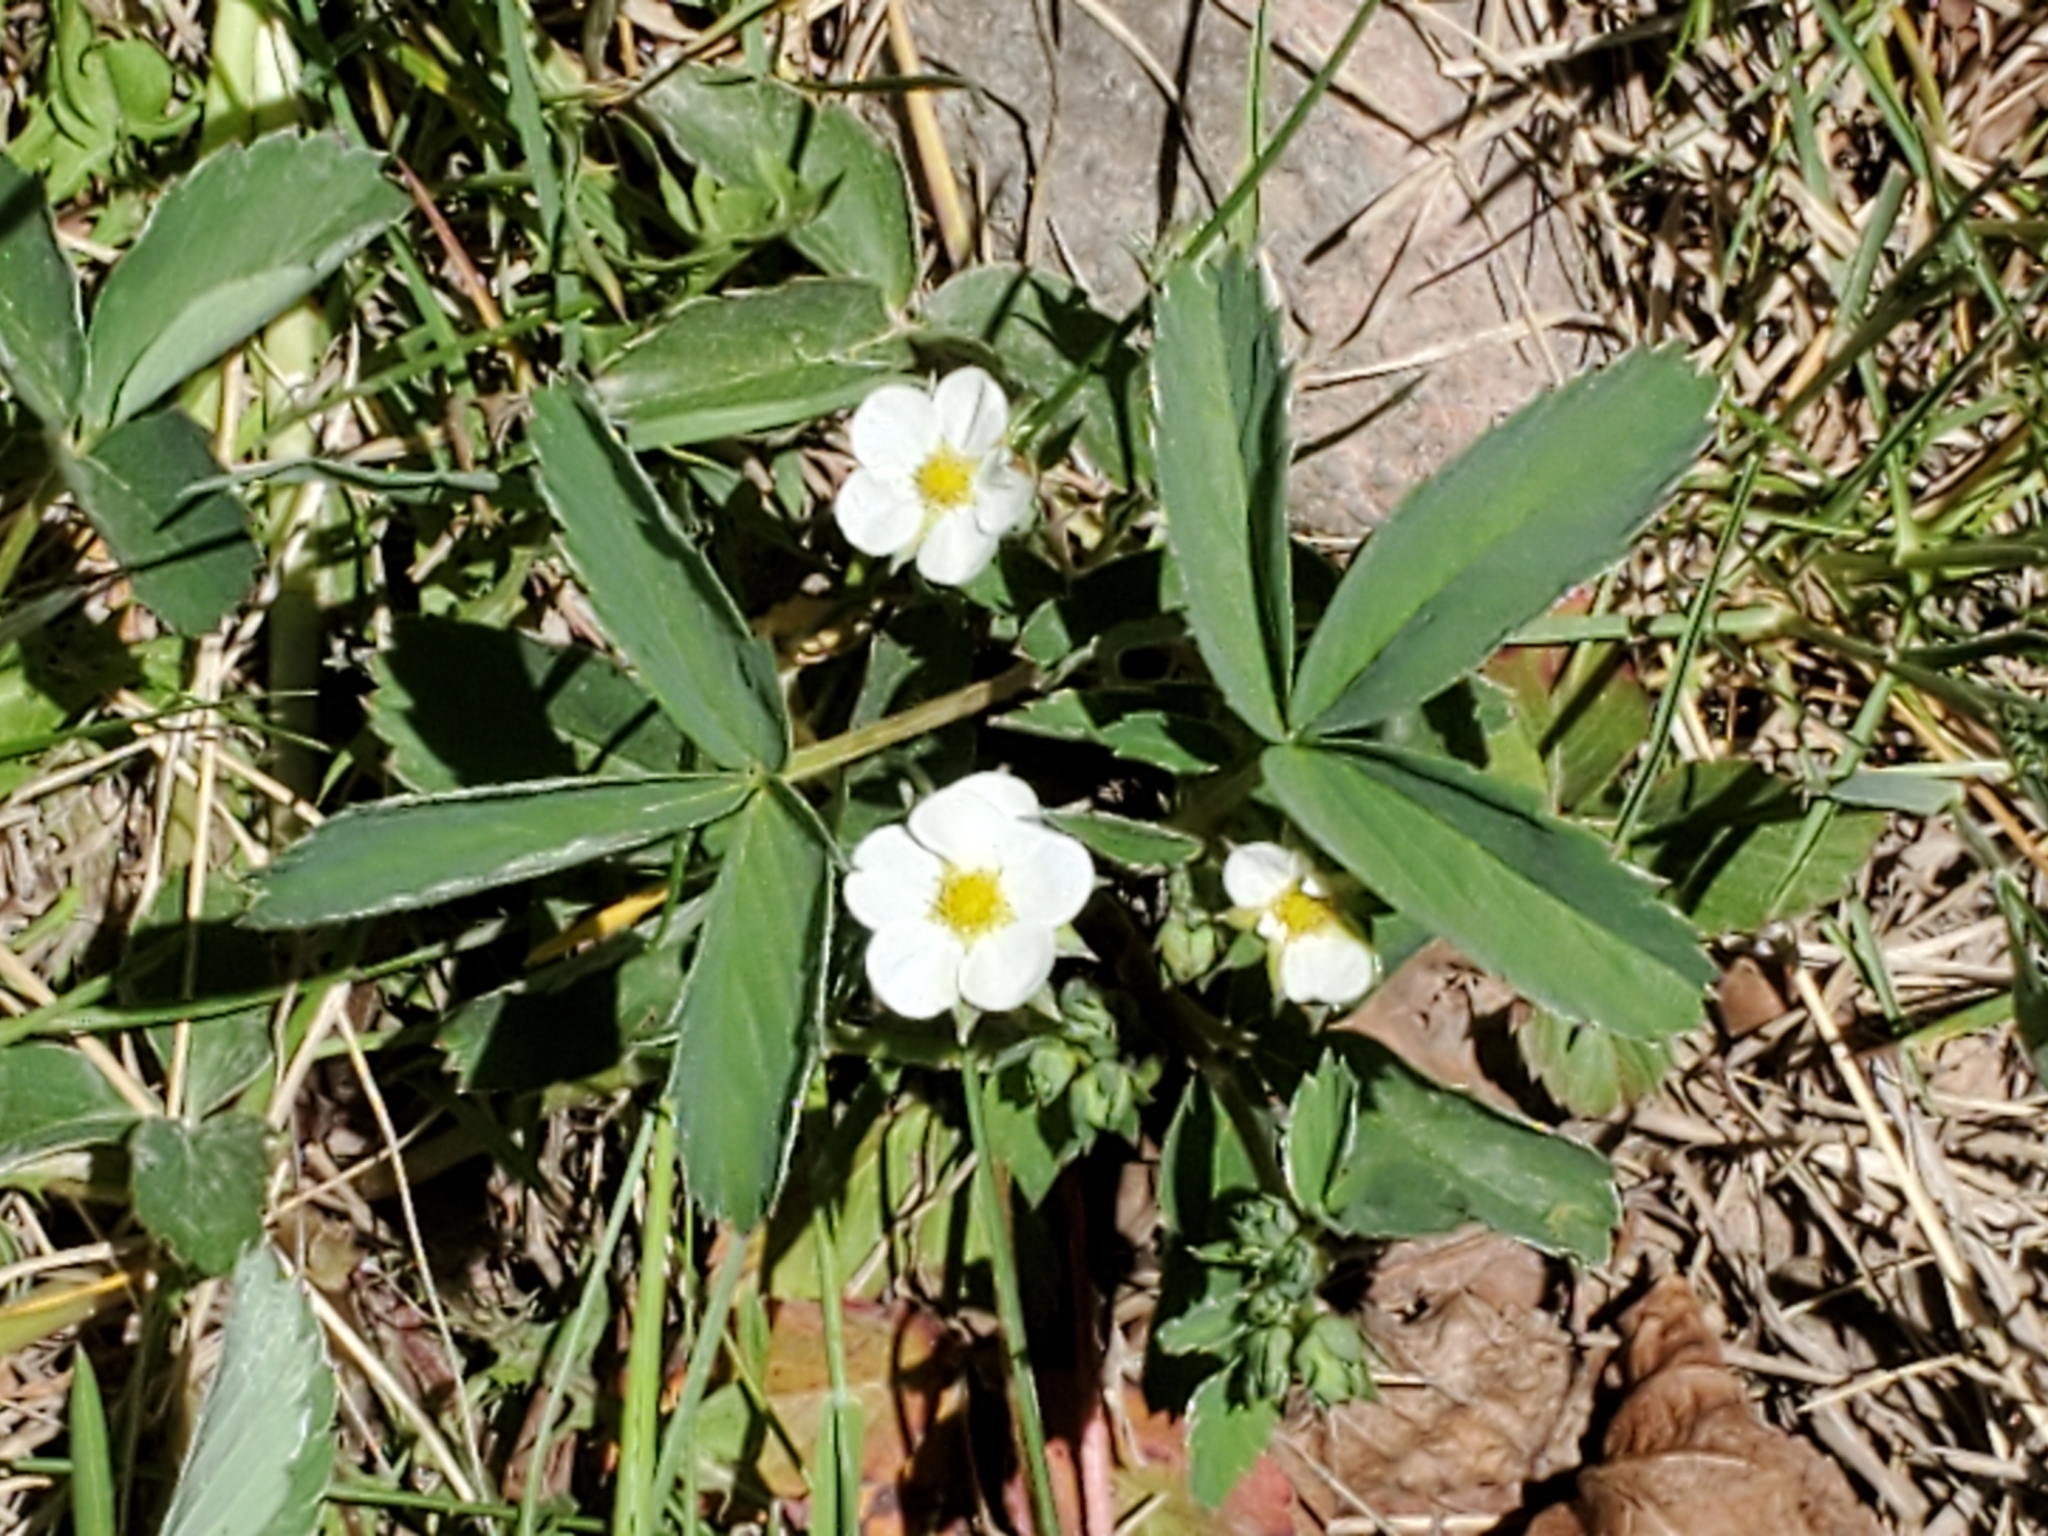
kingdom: Plantae
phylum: Tracheophyta
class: Magnoliopsida
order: Rosales
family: Rosaceae
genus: Fragaria
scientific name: Fragaria virginiana
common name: Thickleaved wild strawberry
